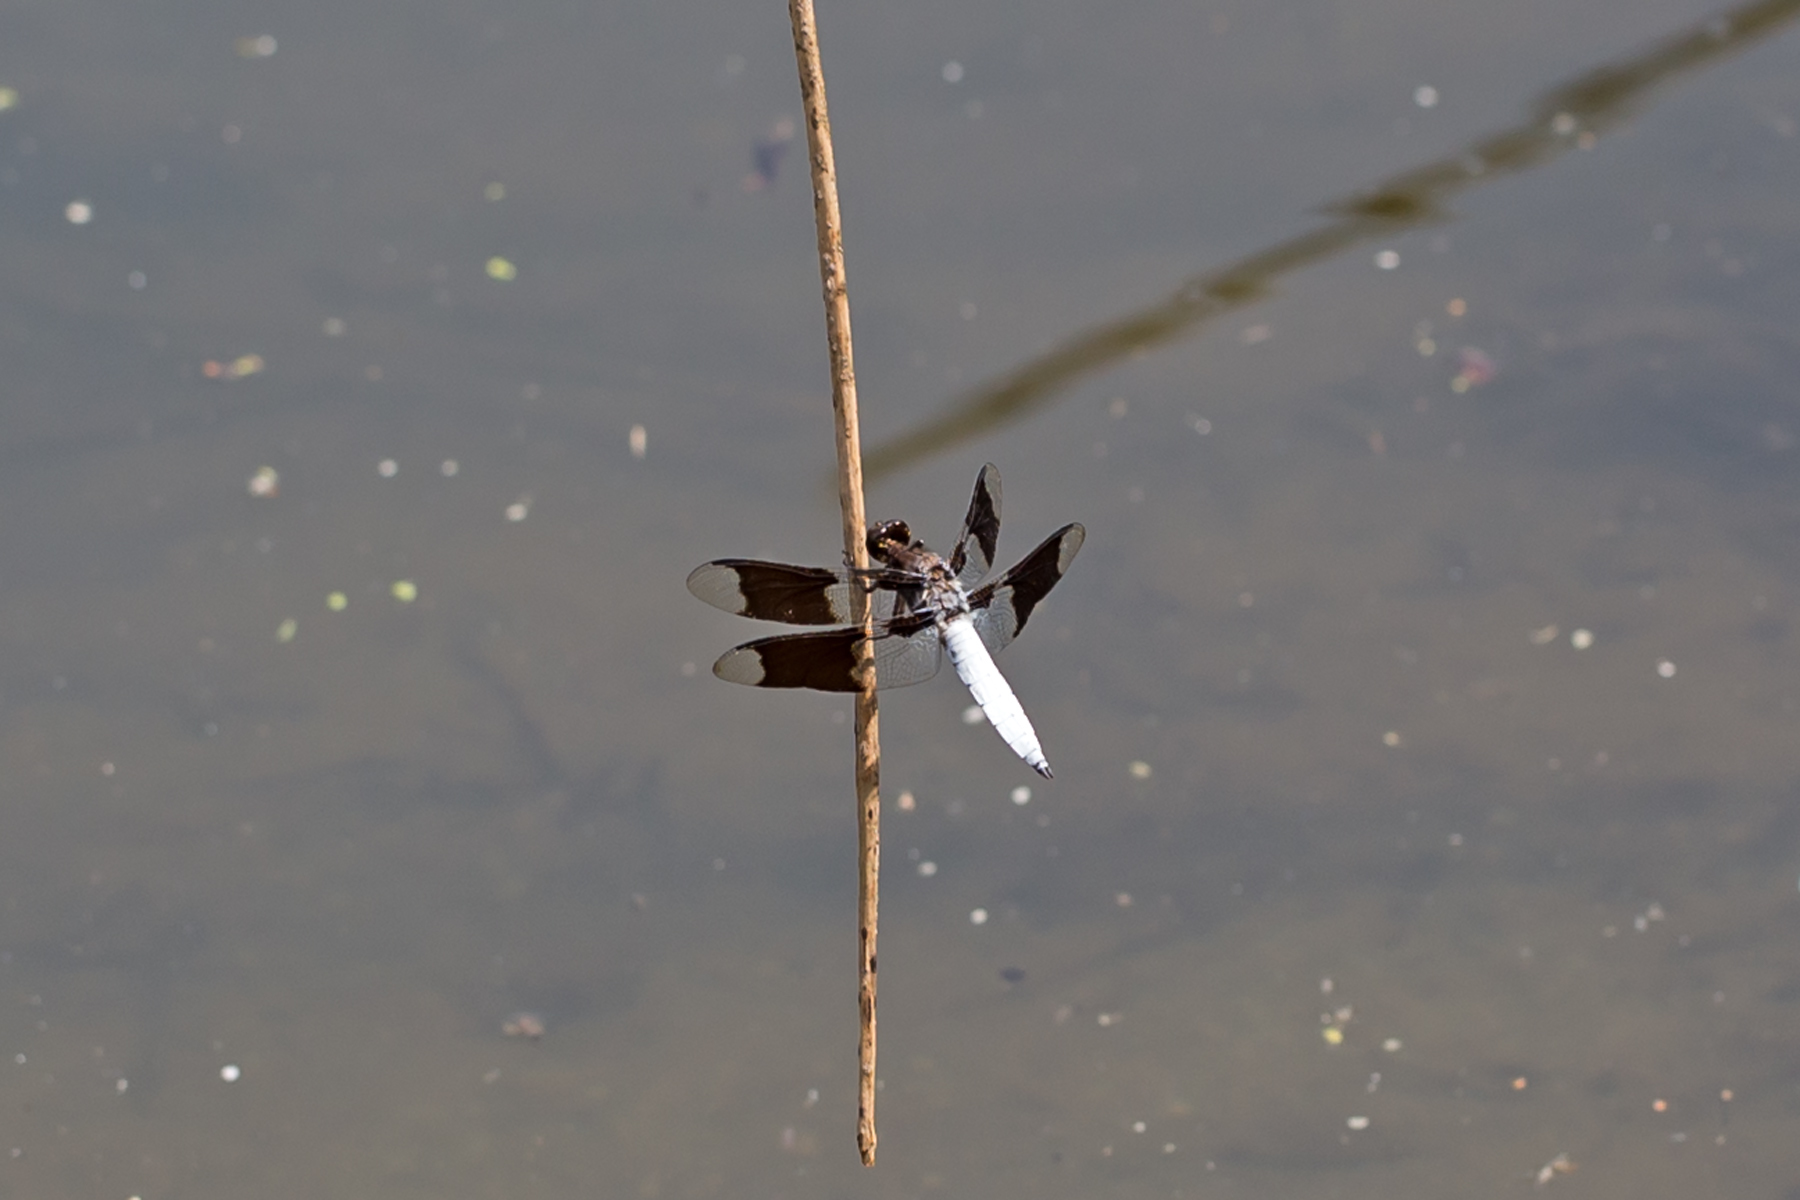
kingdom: Animalia
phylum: Arthropoda
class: Insecta
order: Odonata
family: Libellulidae
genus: Plathemis
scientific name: Plathemis lydia
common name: Common whitetail
